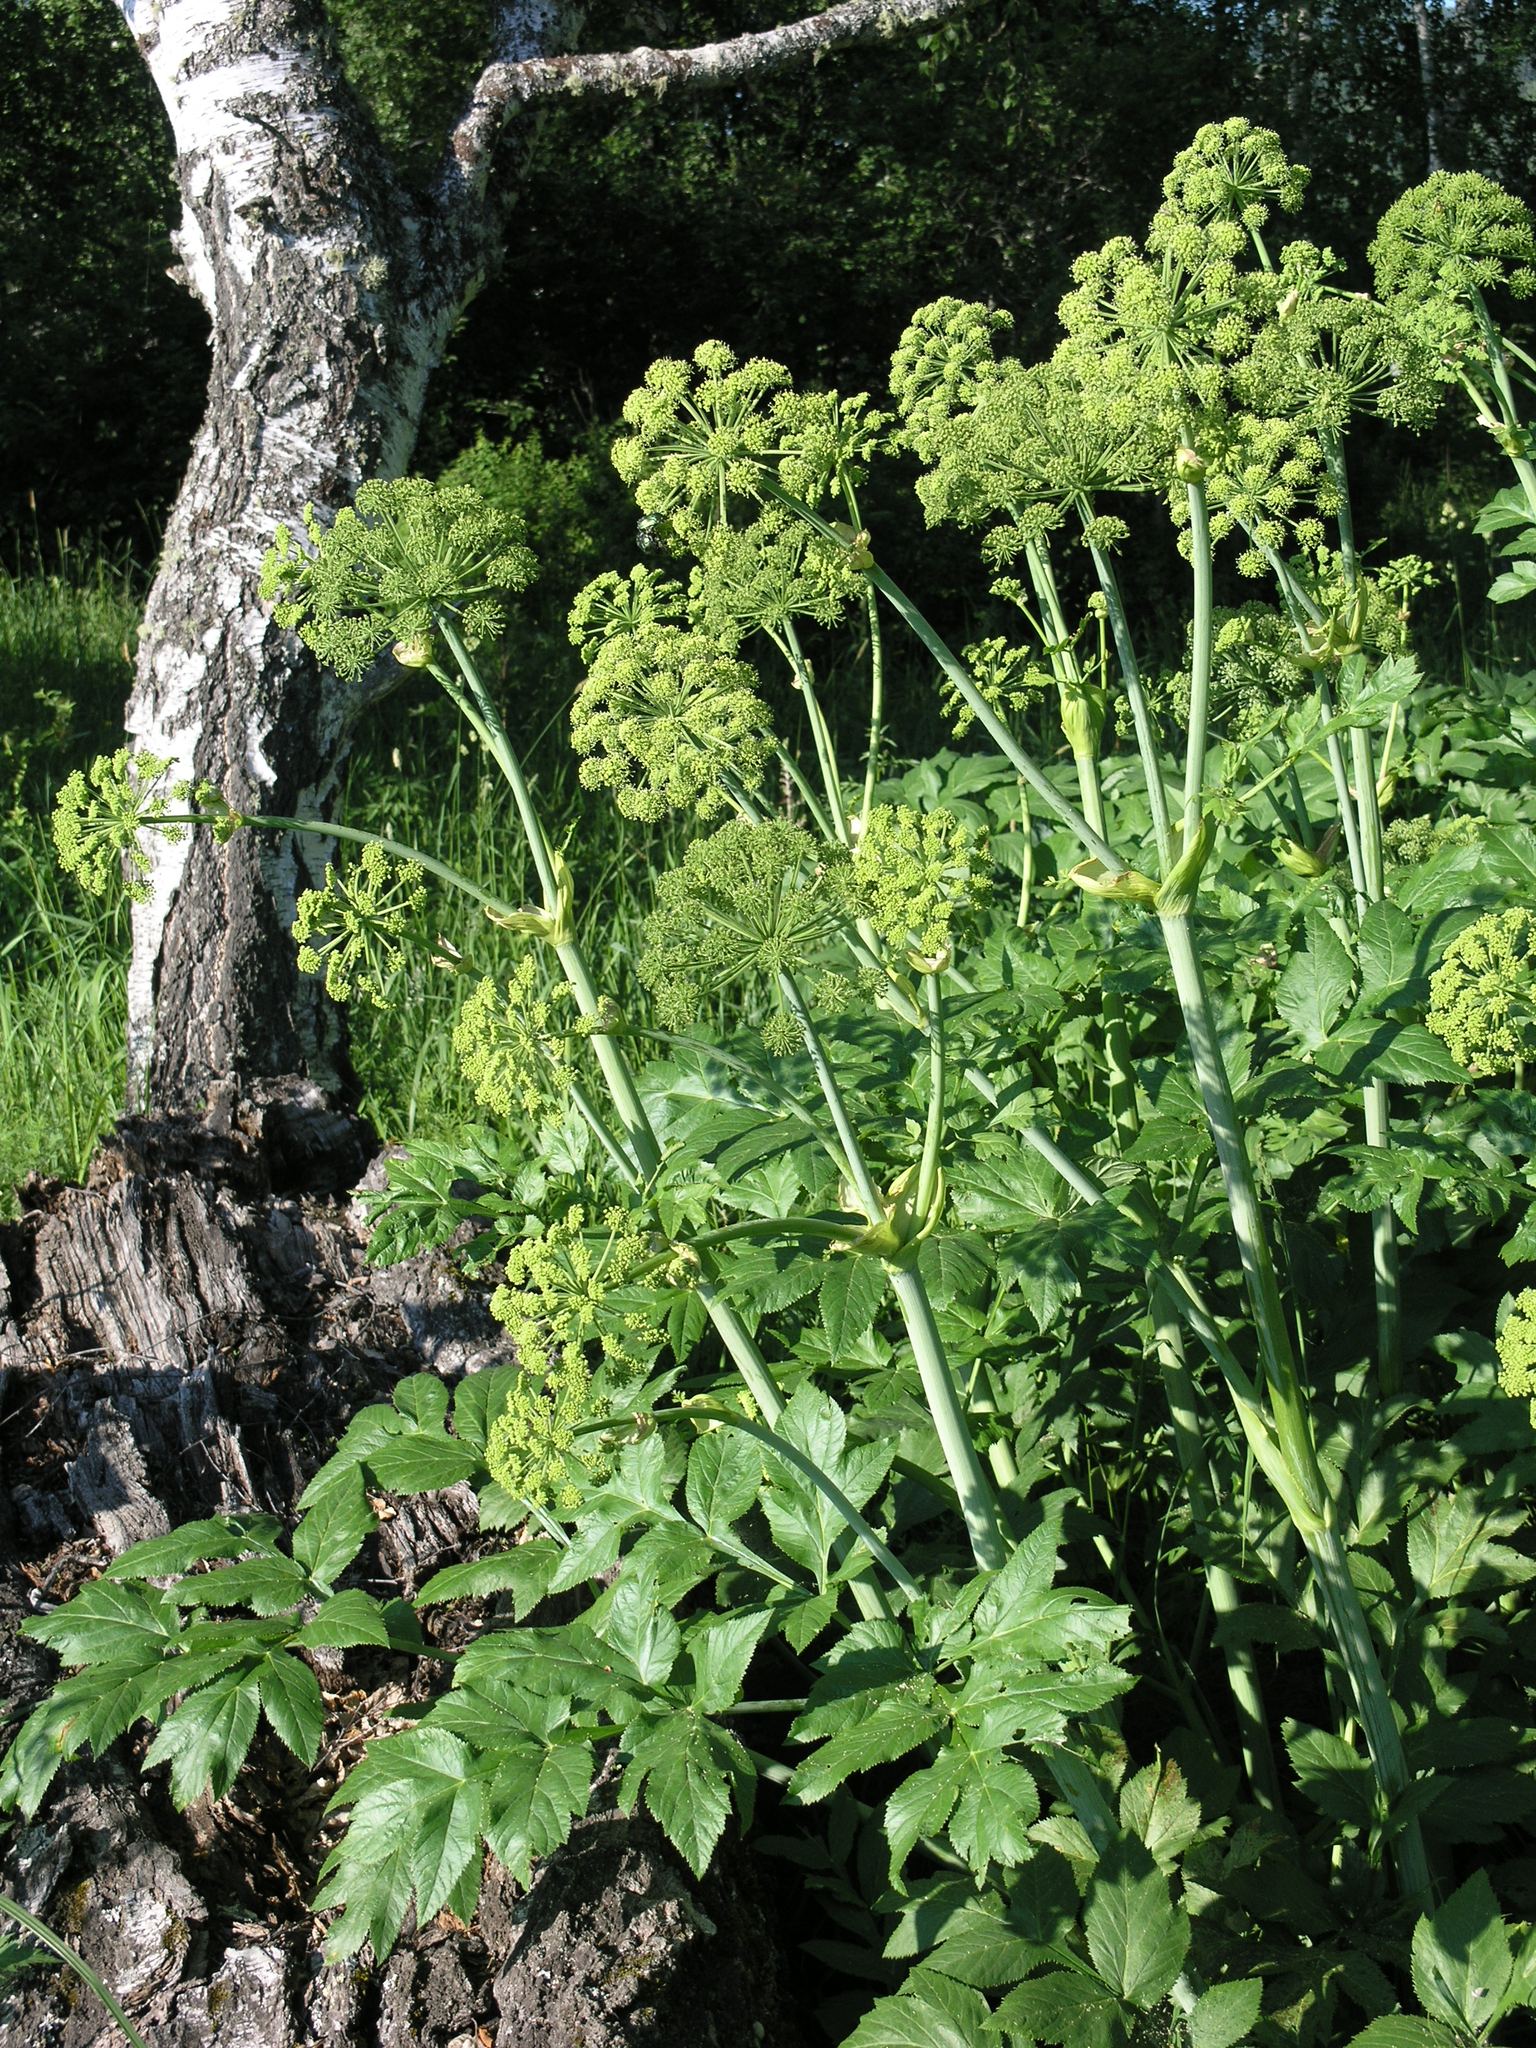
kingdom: Plantae
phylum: Tracheophyta
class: Magnoliopsida
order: Apiales
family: Apiaceae
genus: Angelica
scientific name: Angelica decurrens
